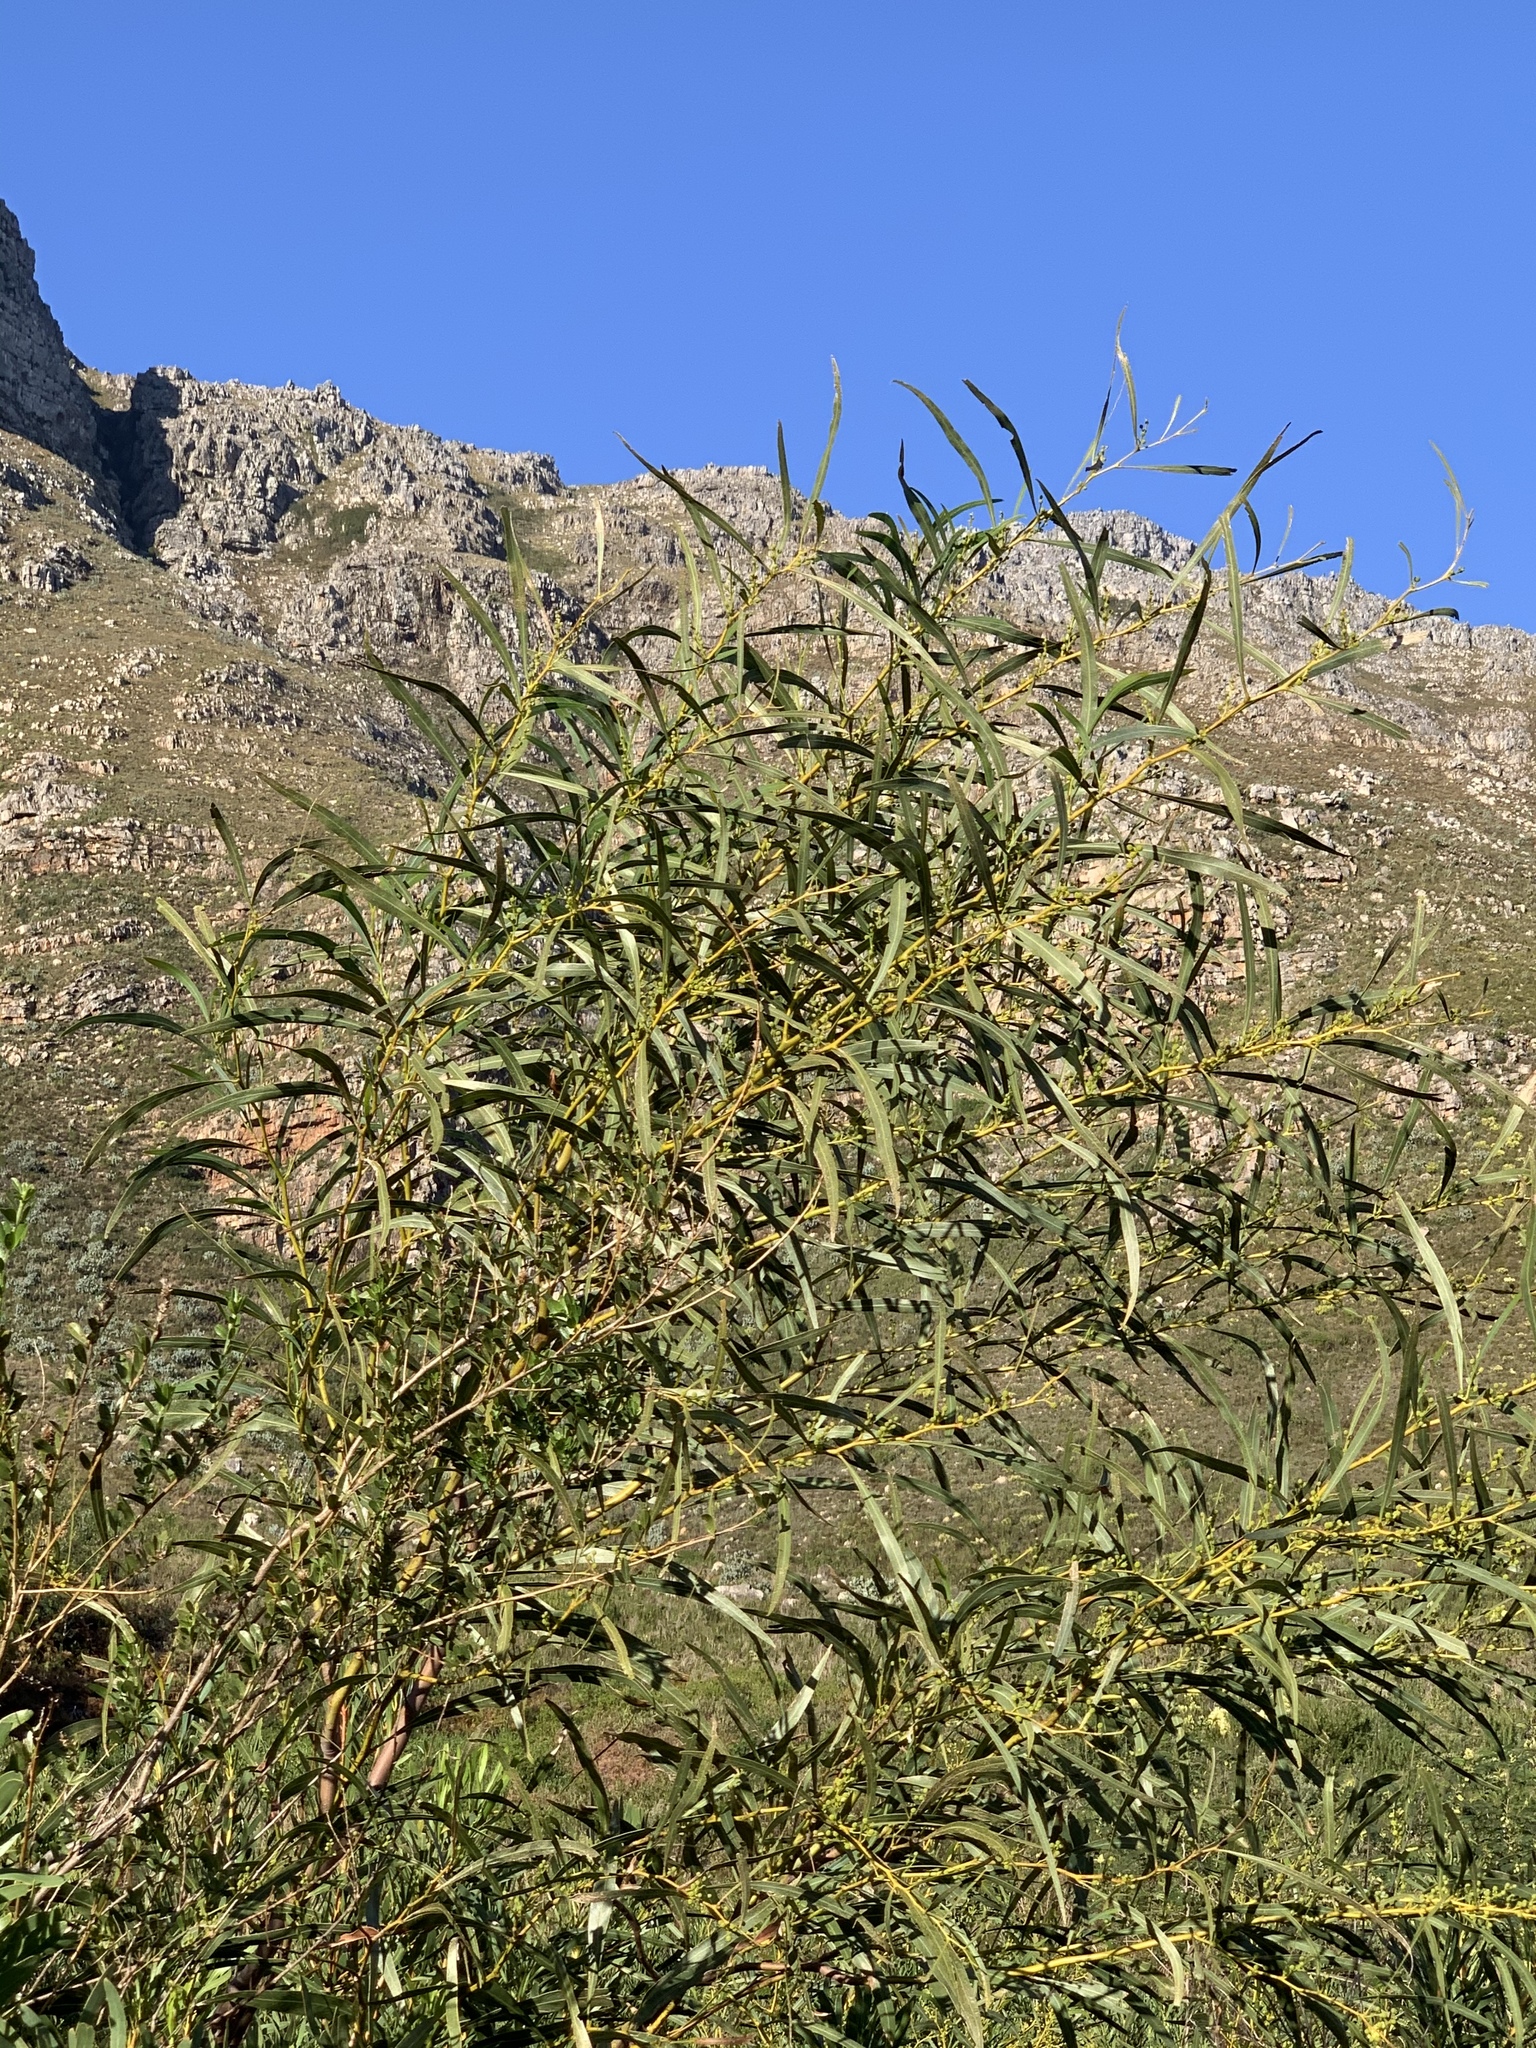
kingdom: Plantae
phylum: Tracheophyta
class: Magnoliopsida
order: Fabales
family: Fabaceae
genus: Acacia
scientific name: Acacia saligna
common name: Orange wattle
